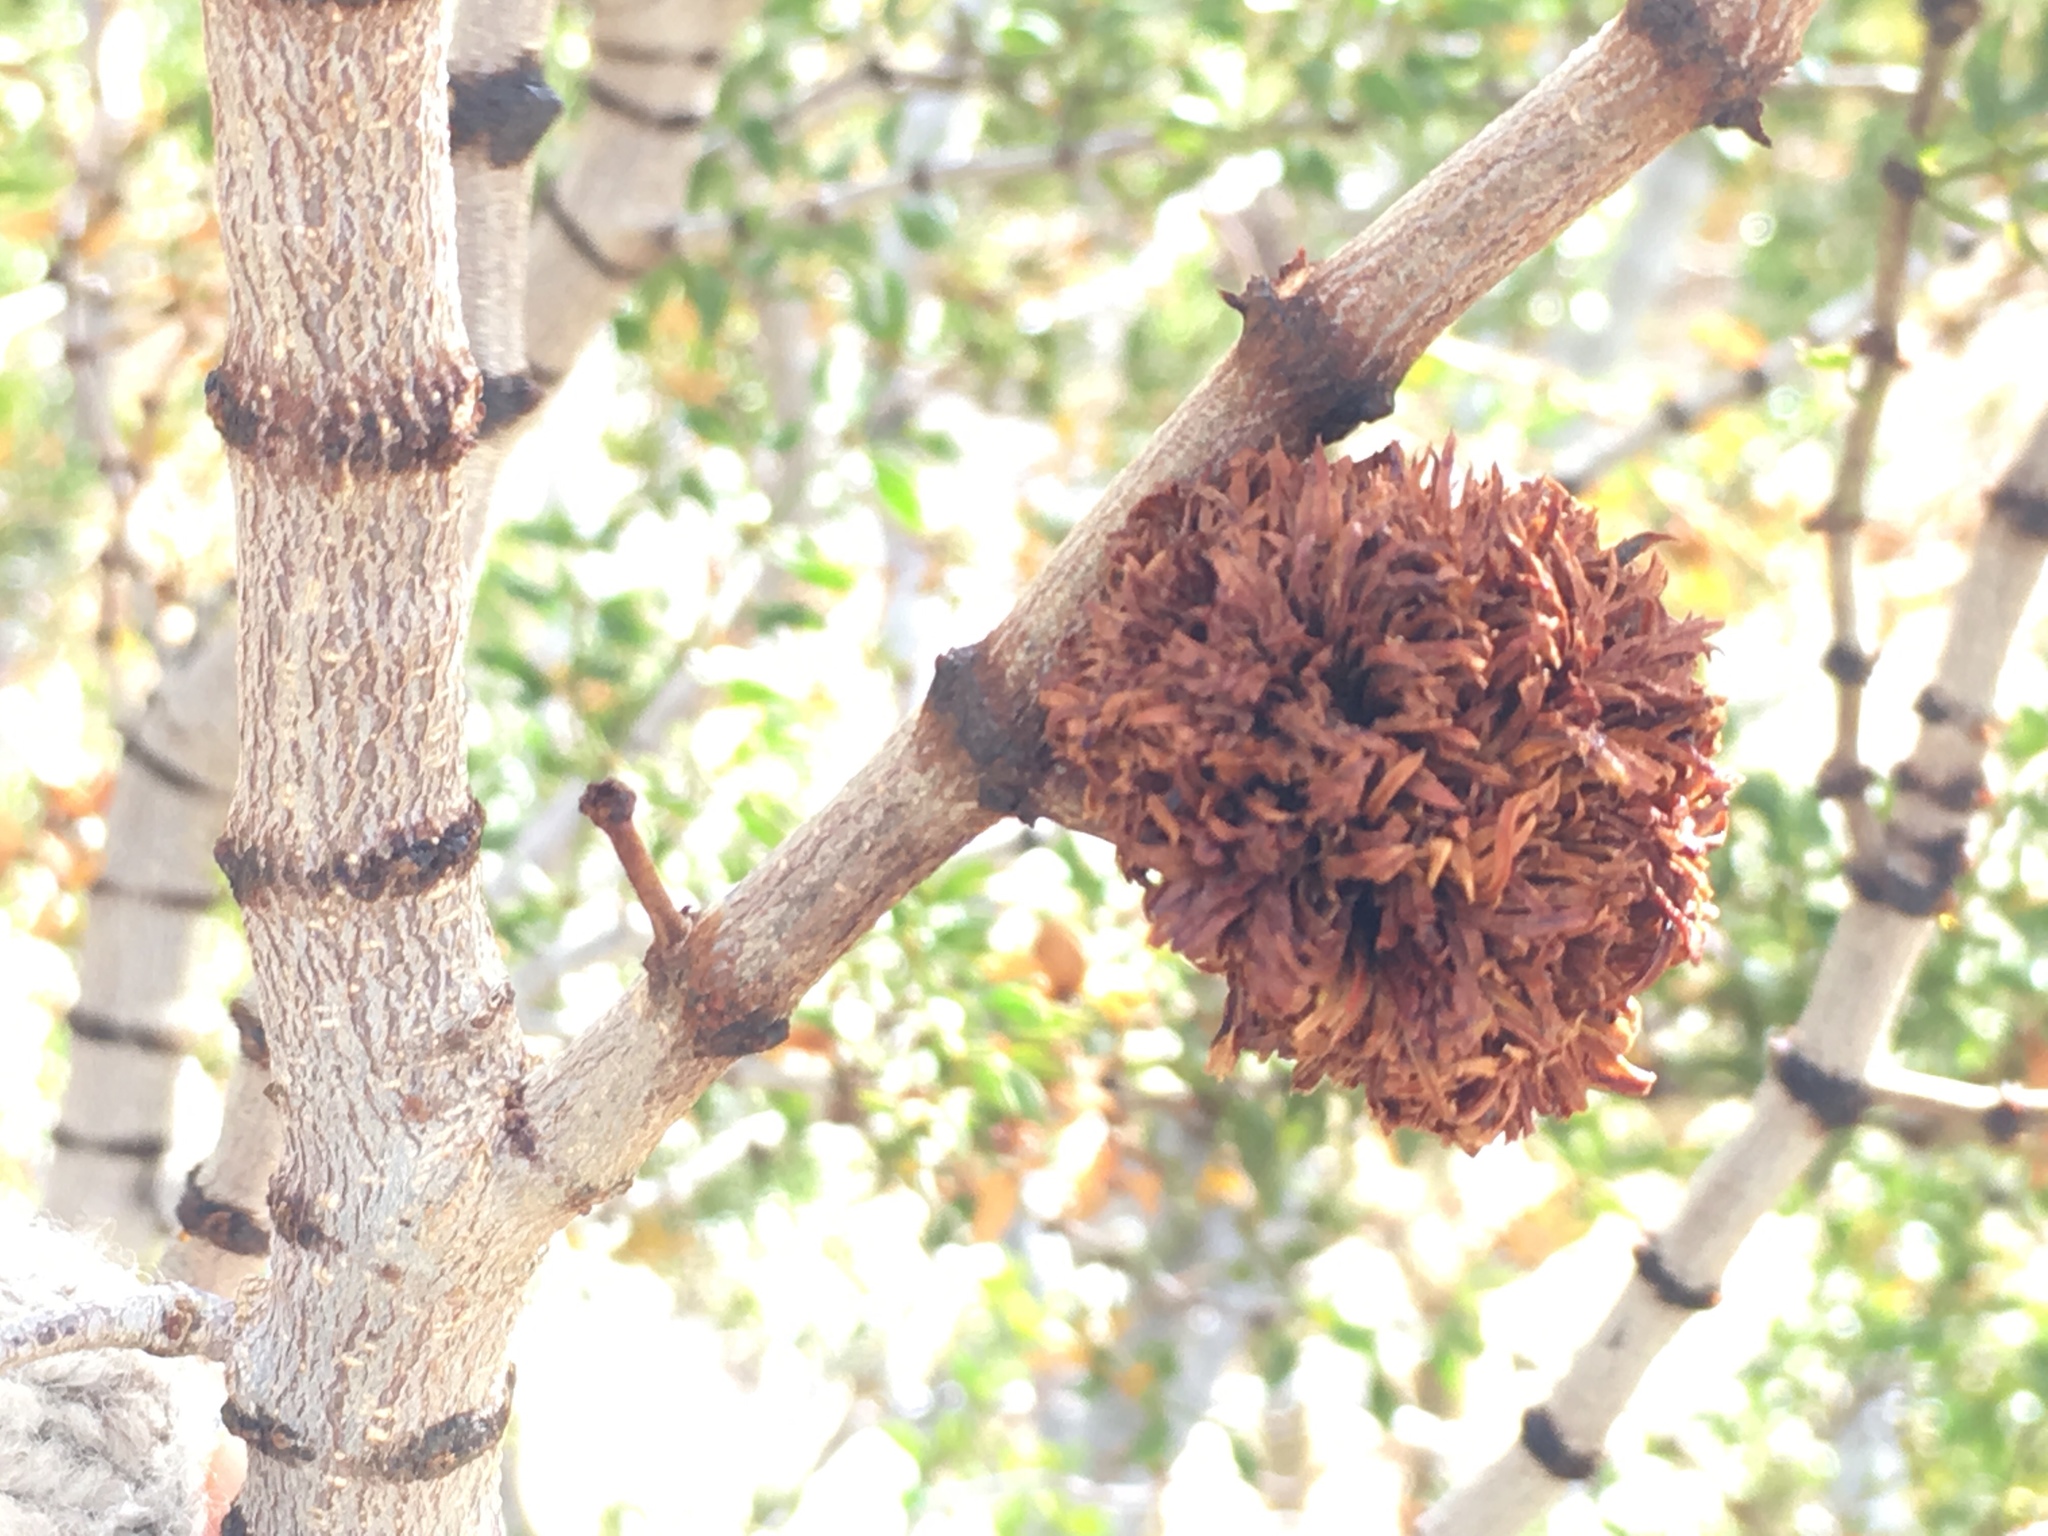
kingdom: Animalia
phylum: Arthropoda
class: Insecta
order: Diptera
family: Cecidomyiidae
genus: Asphondylia
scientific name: Asphondylia auripila
